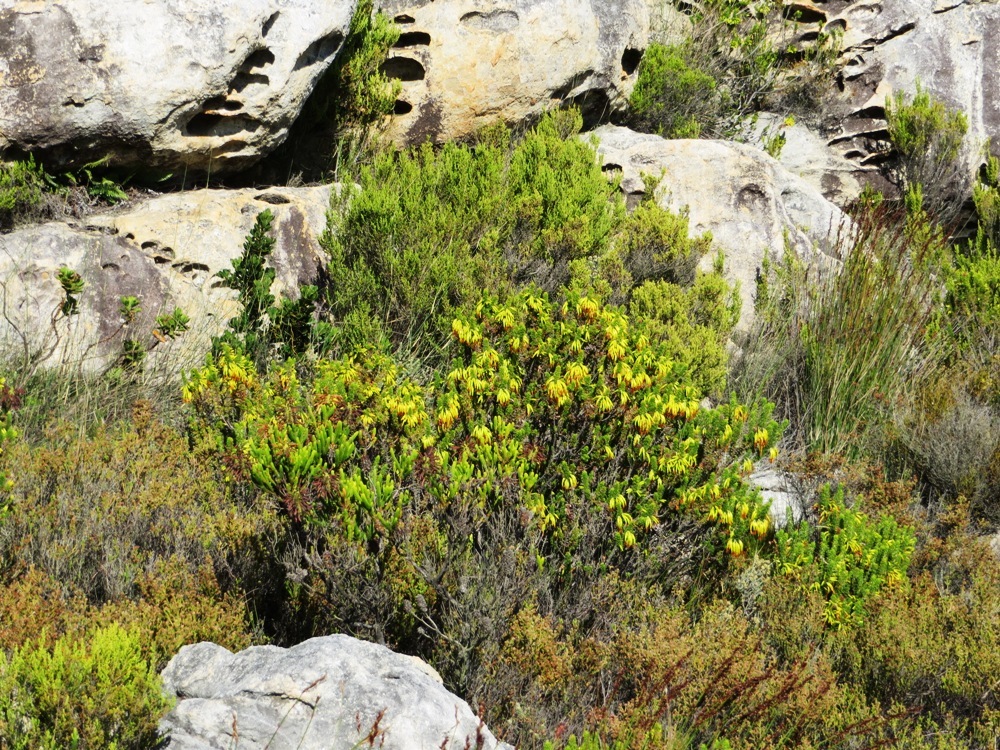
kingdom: Plantae
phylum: Tracheophyta
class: Magnoliopsida
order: Ericales
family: Ericaceae
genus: Erica
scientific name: Erica coccinea
